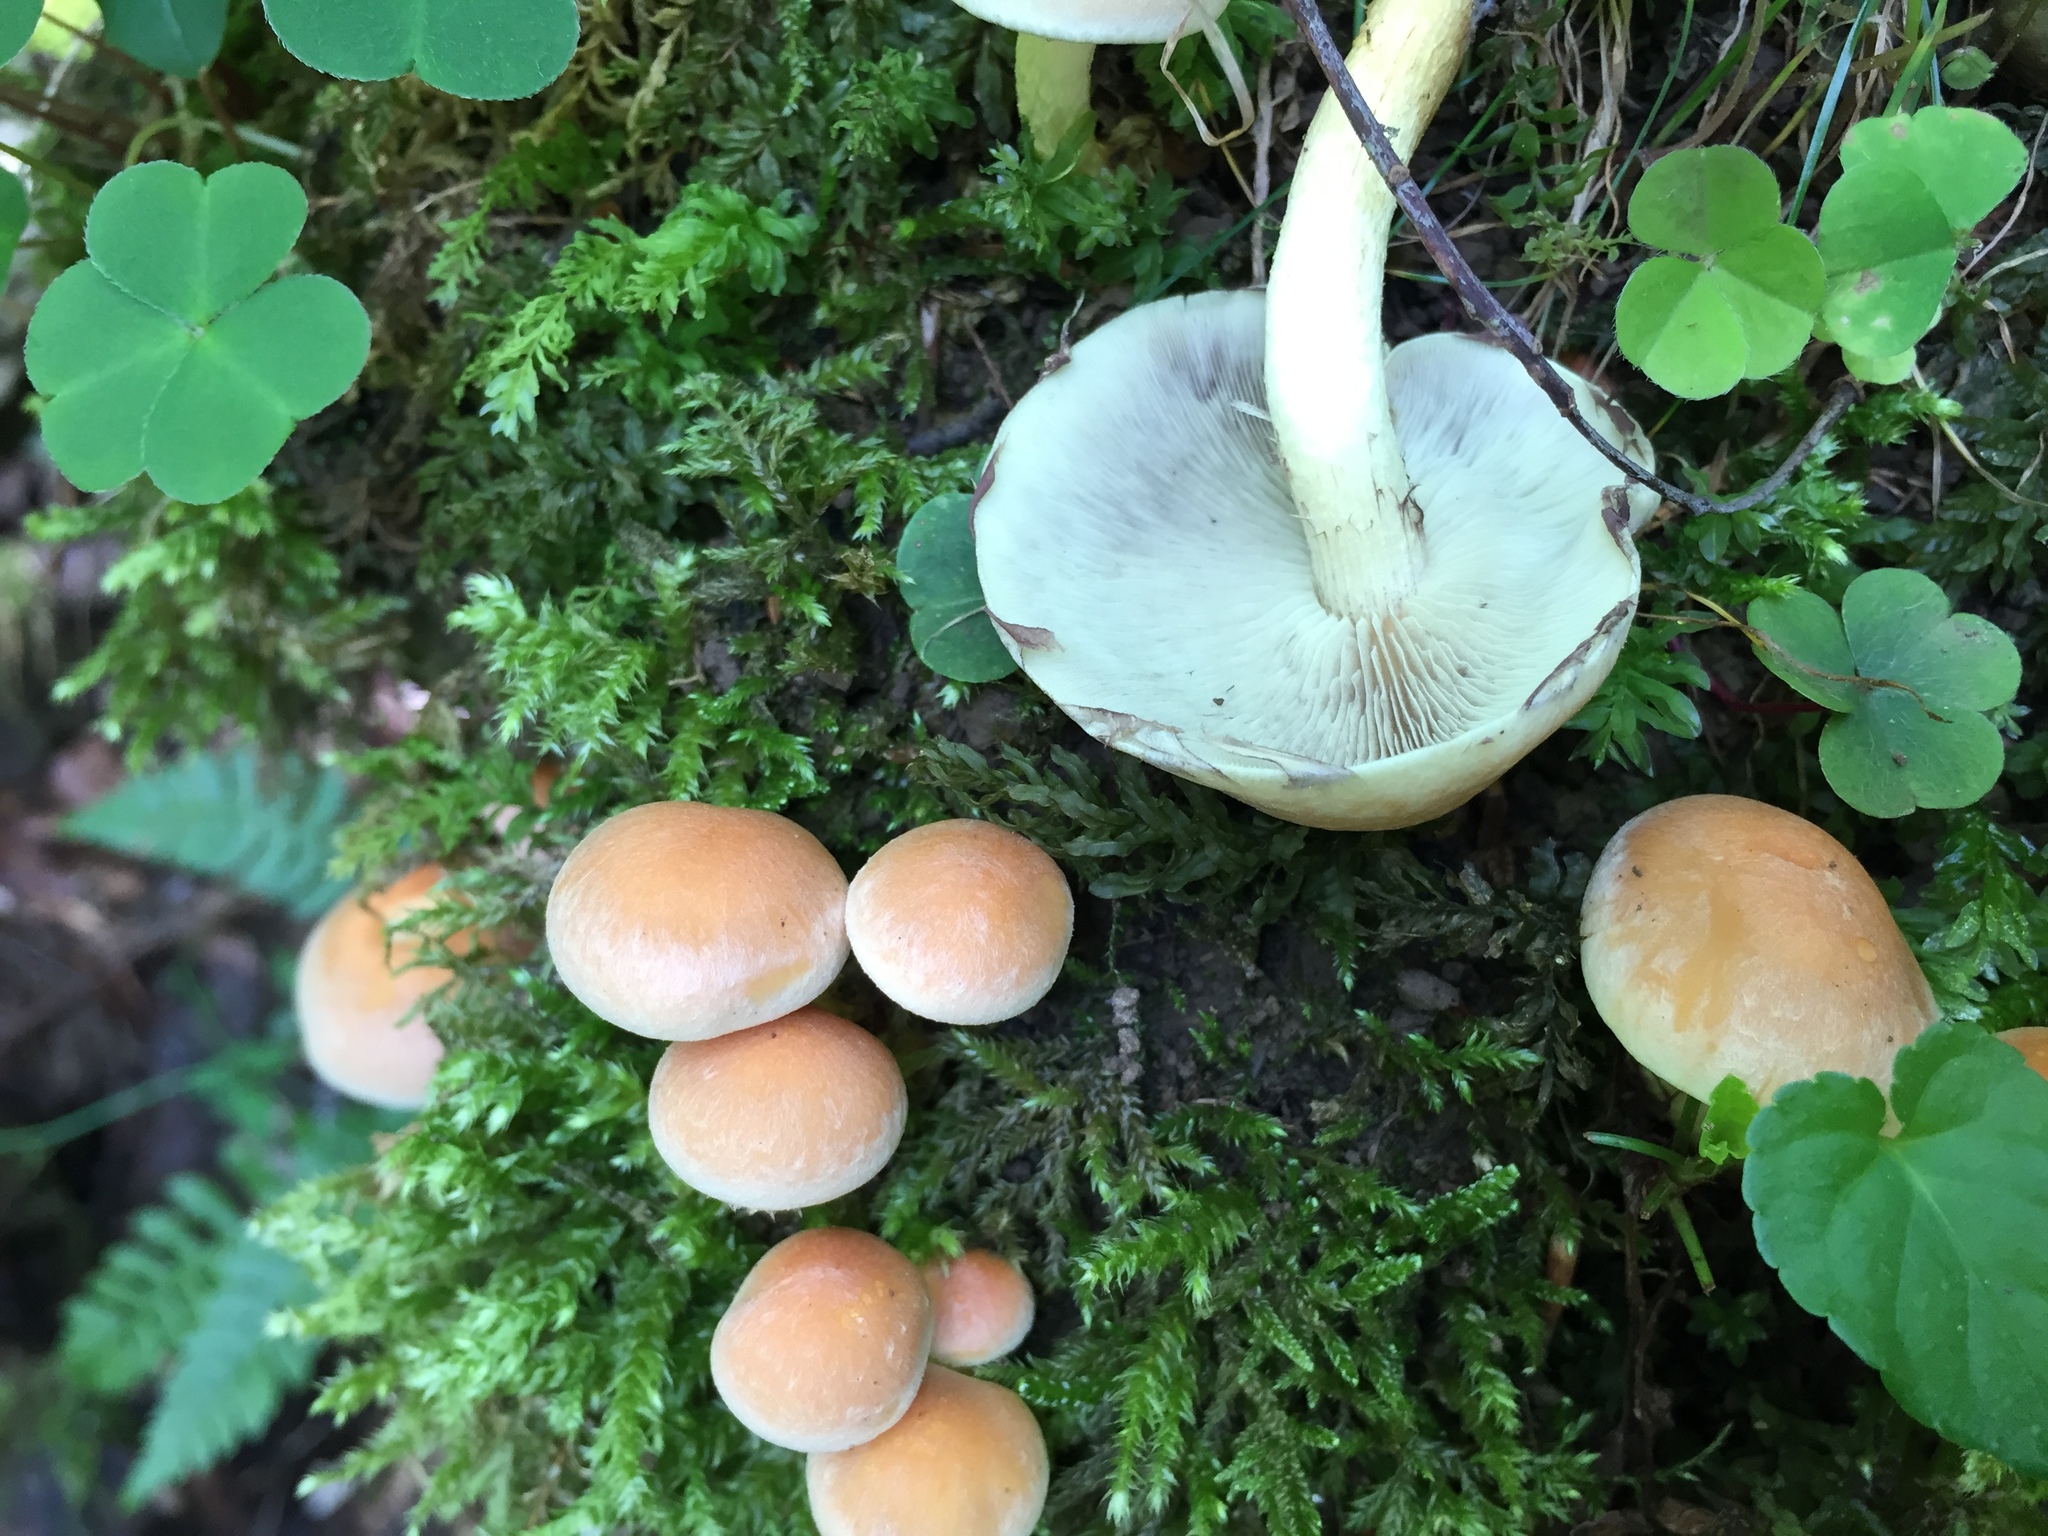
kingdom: Fungi
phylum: Basidiomycota
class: Agaricomycetes
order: Agaricales
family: Strophariaceae
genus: Hypholoma
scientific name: Hypholoma fasciculare
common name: Sulphur tuft
